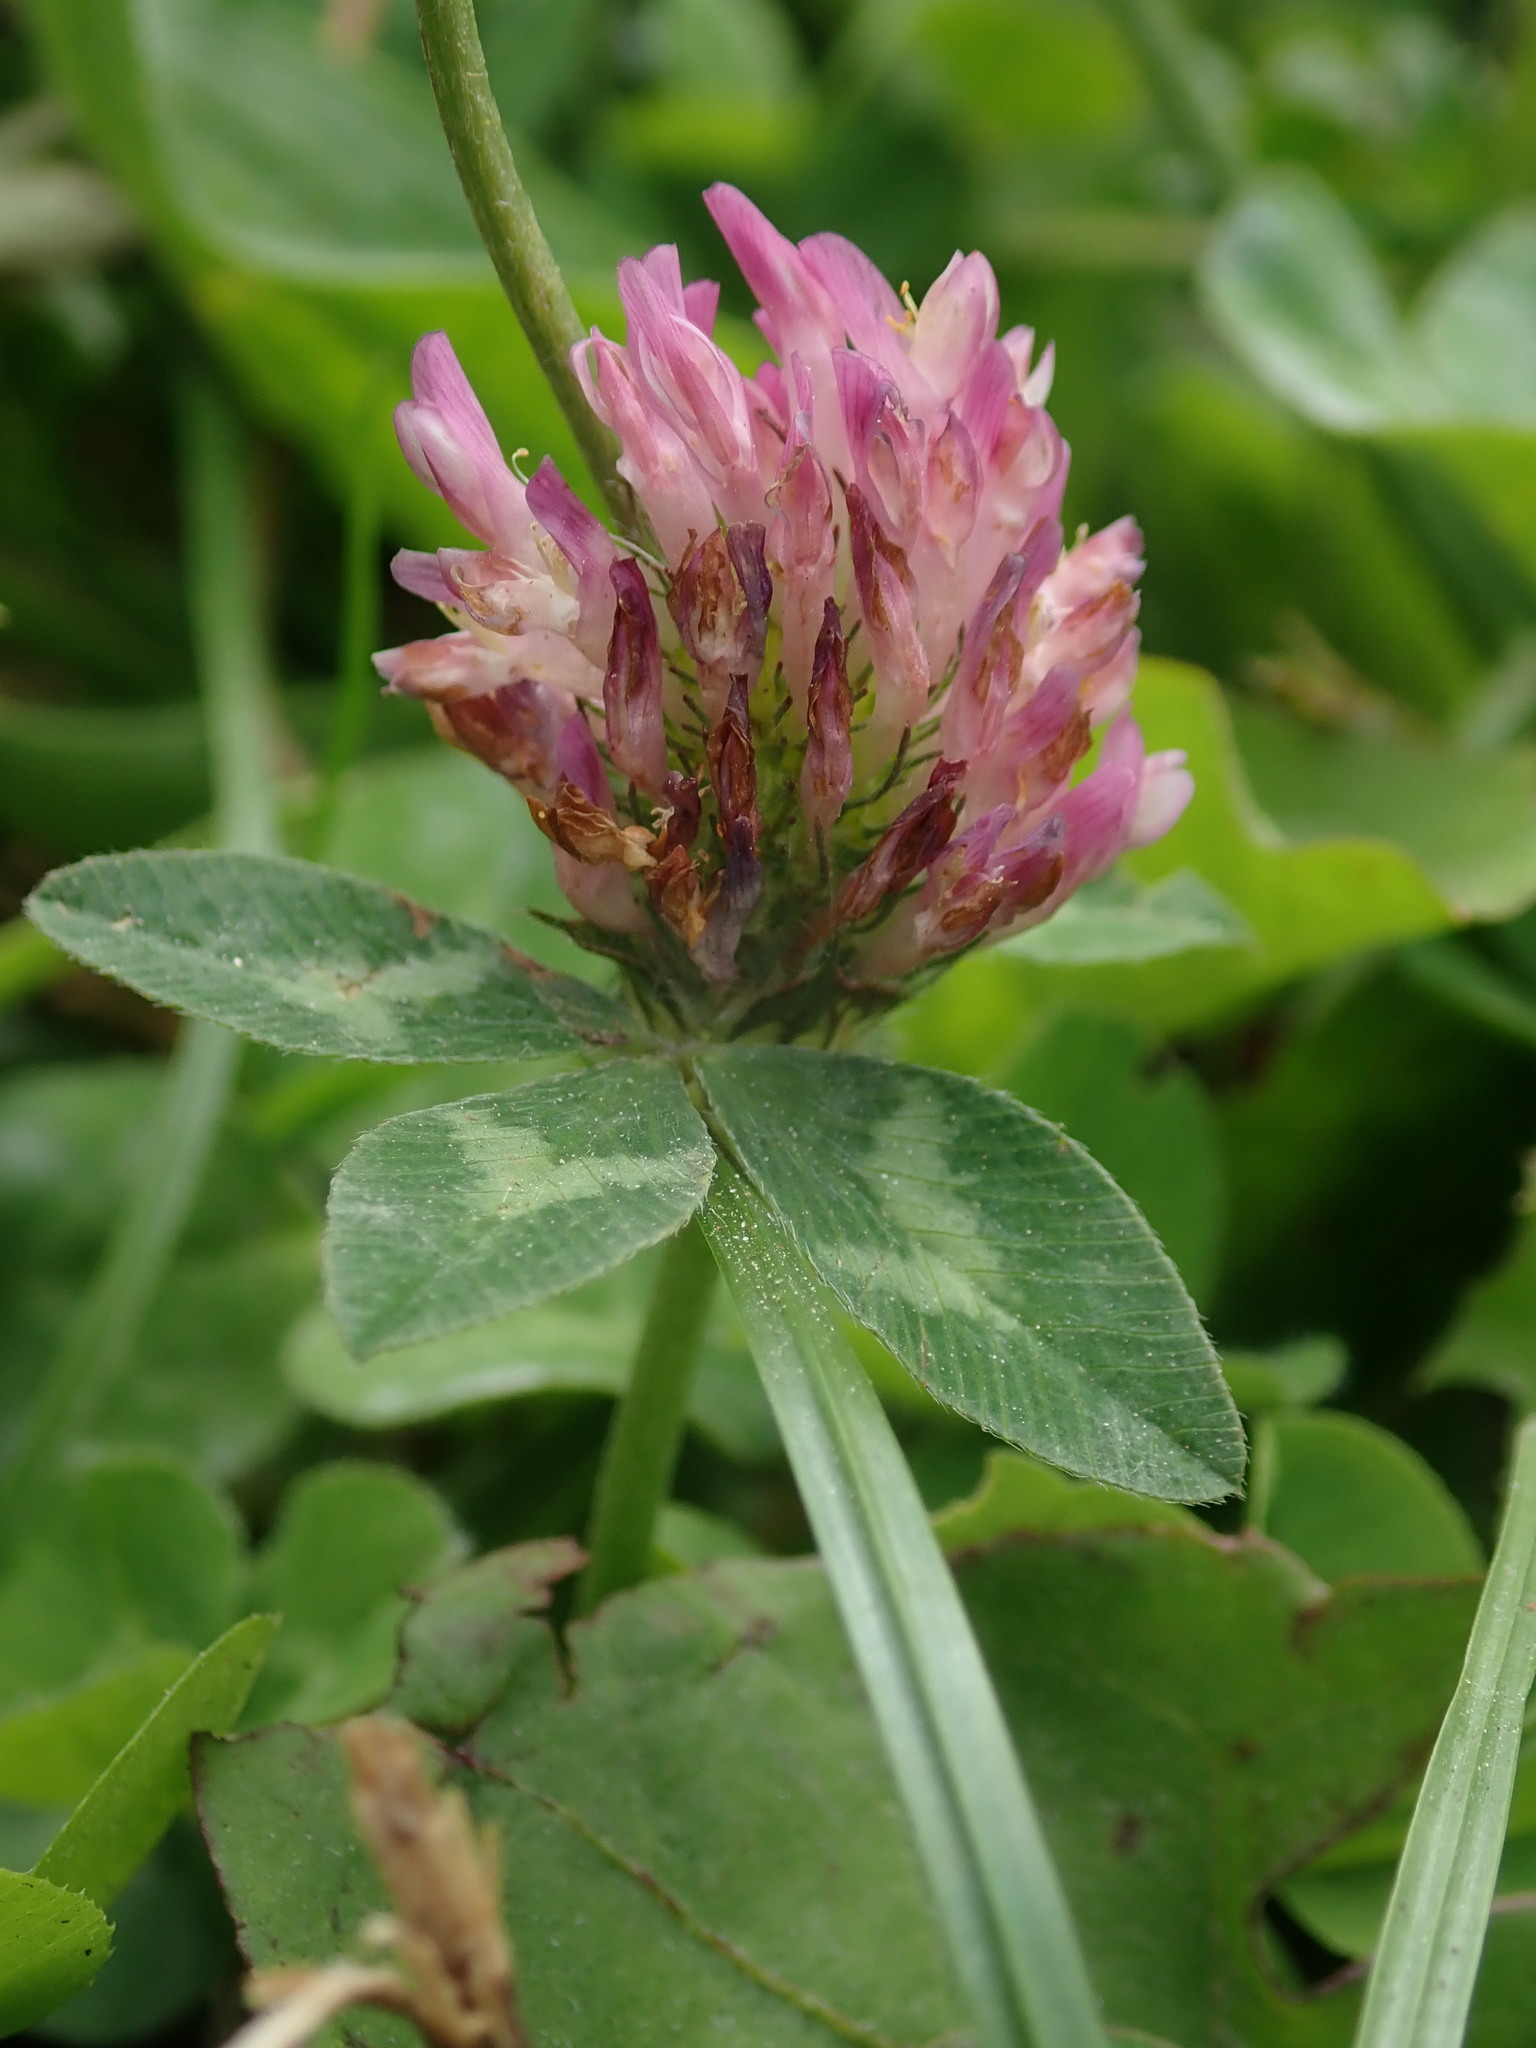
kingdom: Plantae
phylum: Tracheophyta
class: Magnoliopsida
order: Fabales
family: Fabaceae
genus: Trifolium
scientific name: Trifolium pratense
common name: Red clover
